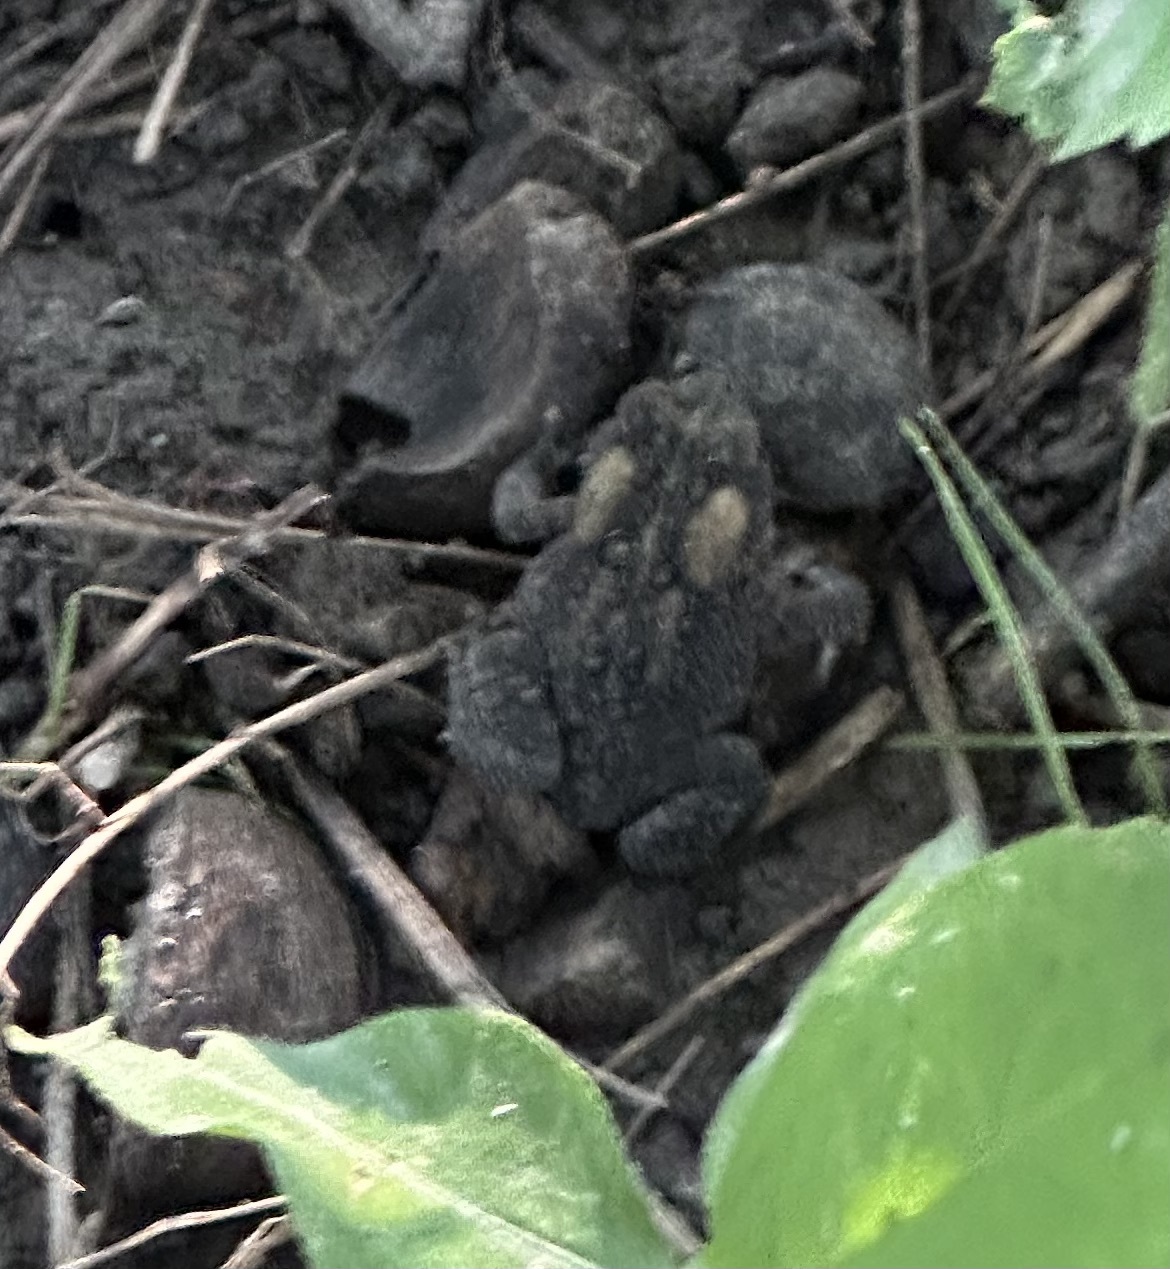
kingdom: Animalia
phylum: Chordata
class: Amphibia
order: Anura
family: Bufonidae
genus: Anaxyrus
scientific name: Anaxyrus americanus
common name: American toad
